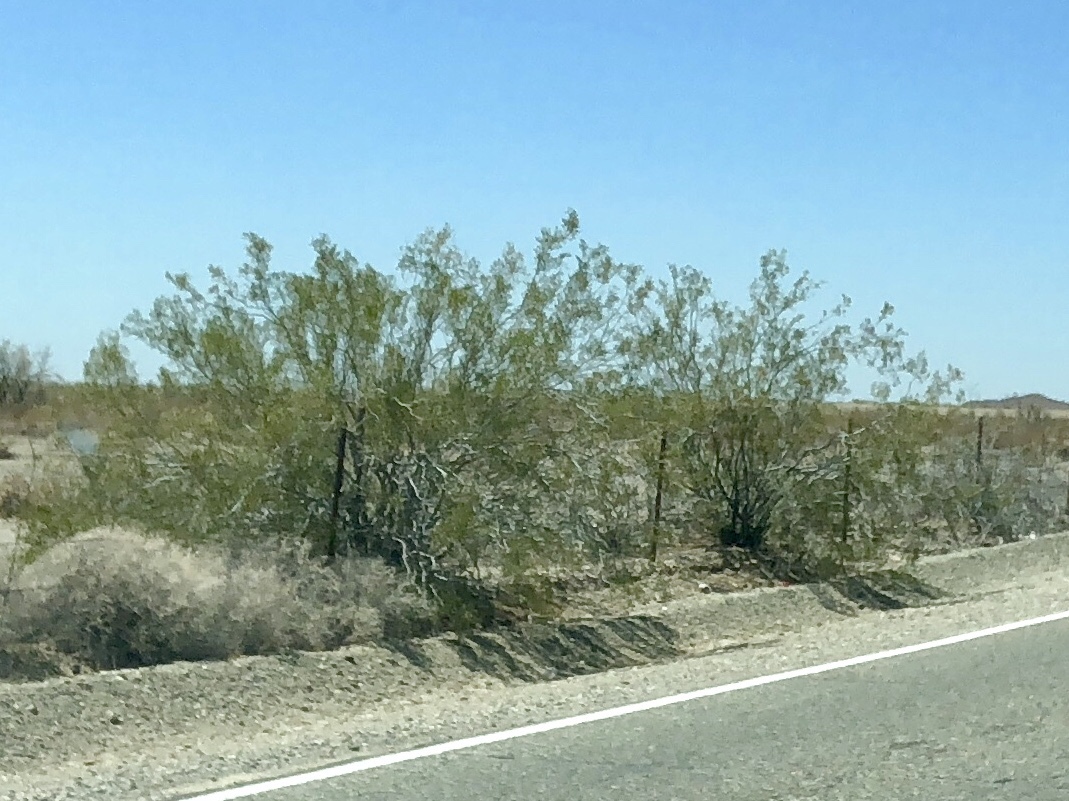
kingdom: Plantae
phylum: Tracheophyta
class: Magnoliopsida
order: Zygophyllales
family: Zygophyllaceae
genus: Larrea
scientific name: Larrea tridentata
